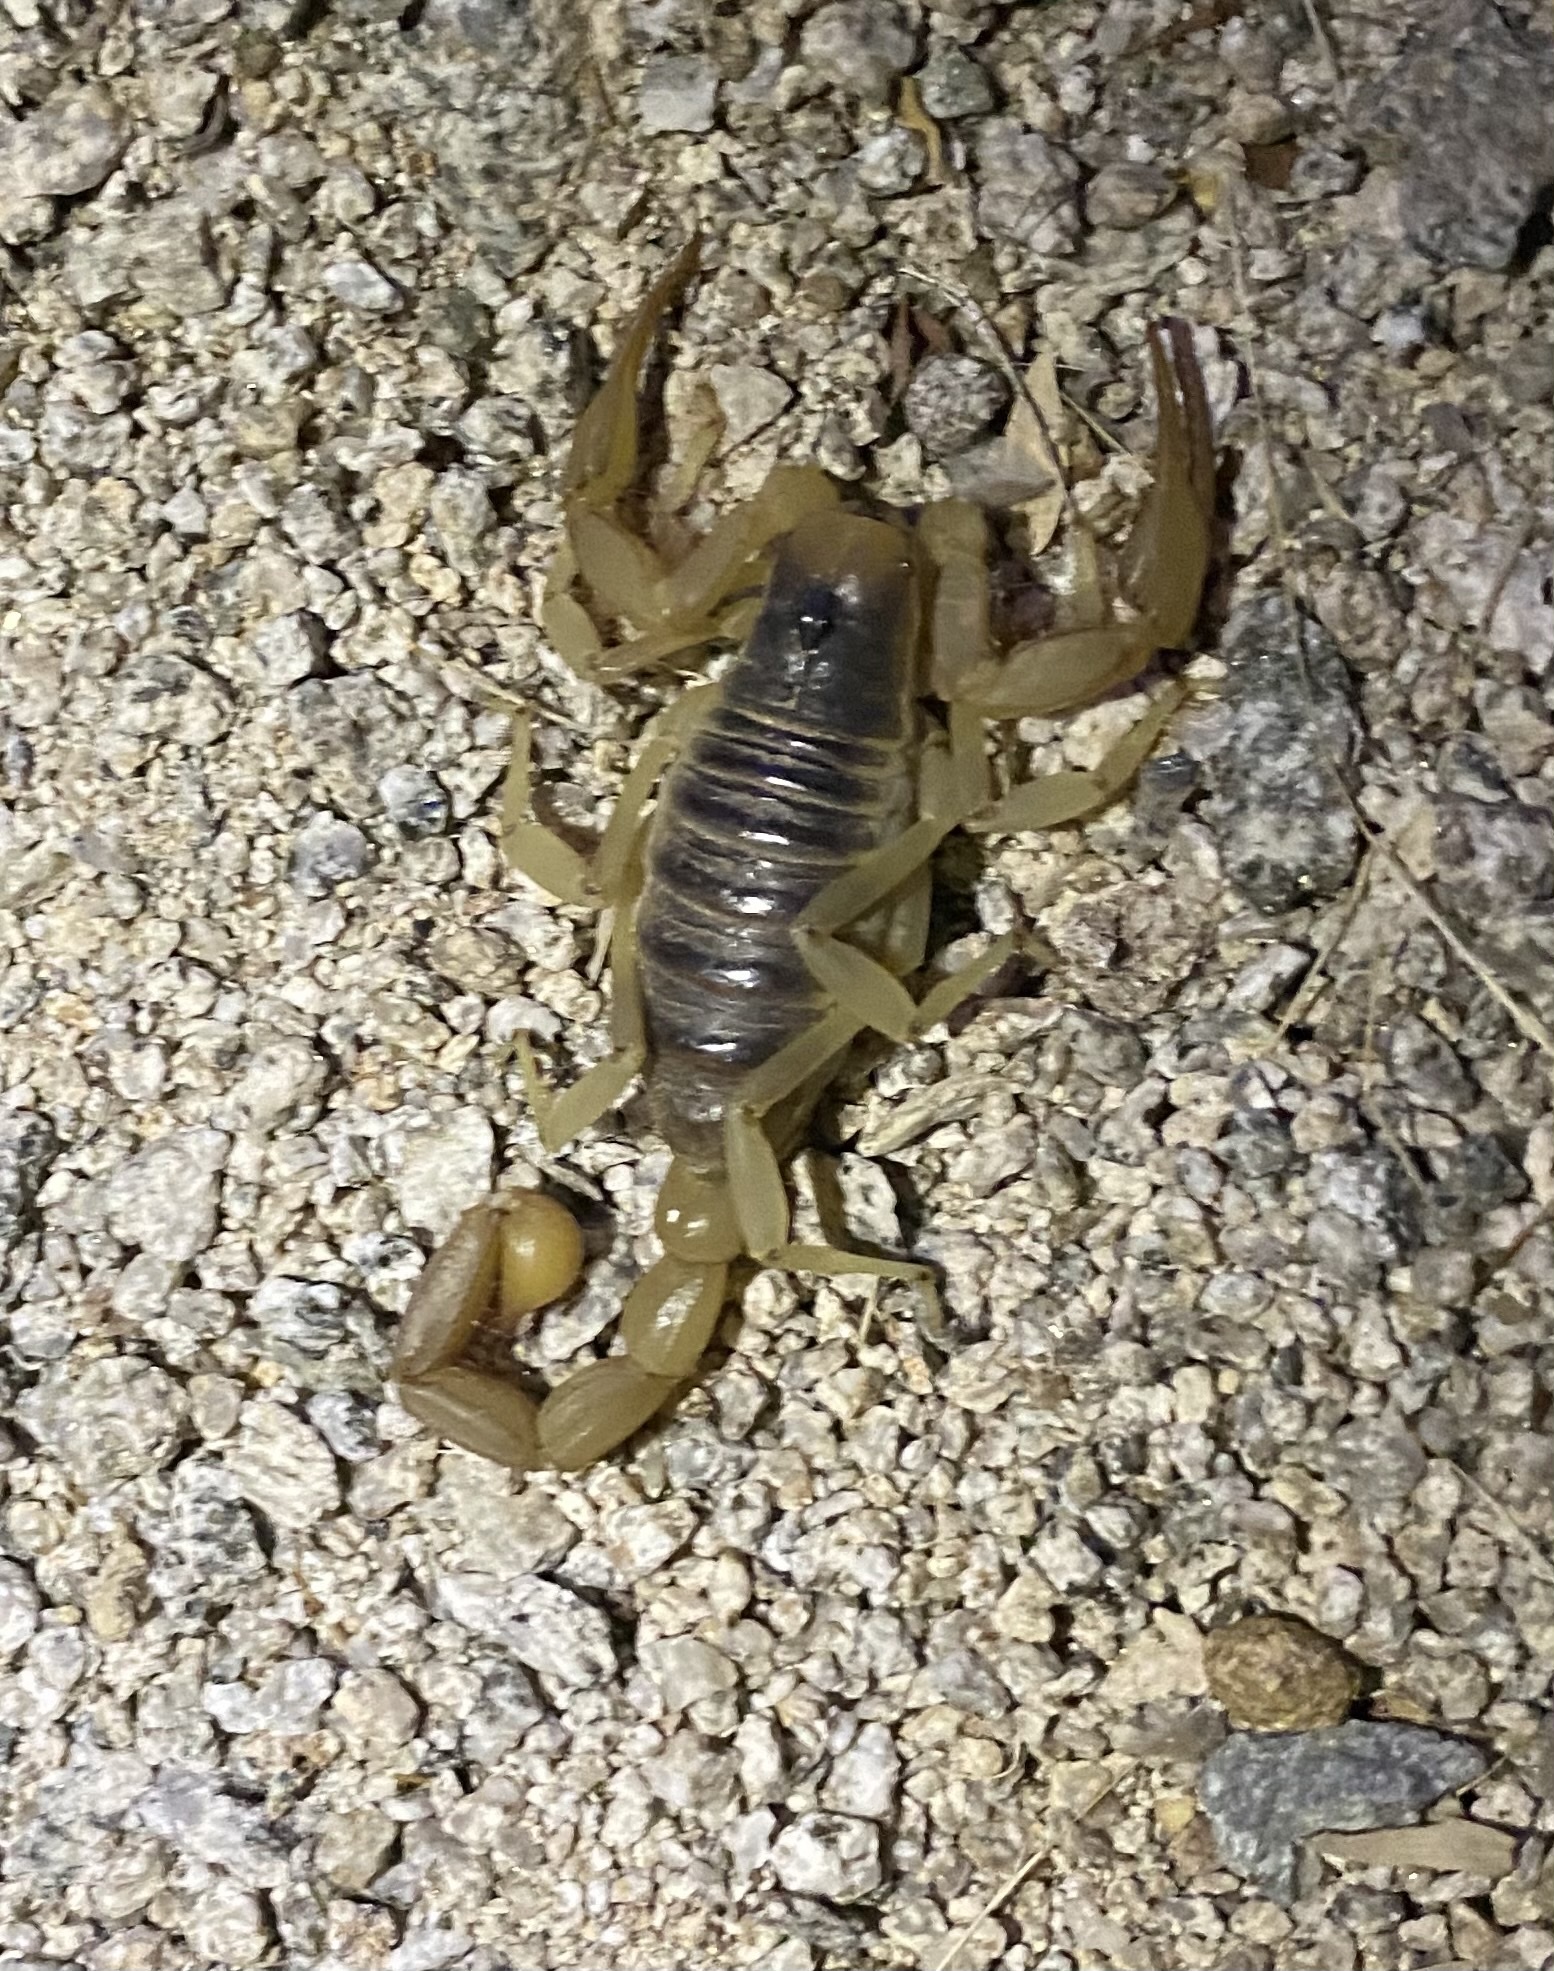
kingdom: Animalia
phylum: Arthropoda
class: Arachnida
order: Scorpiones
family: Hadruridae
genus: Hadrurus
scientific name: Hadrurus arizonensis
